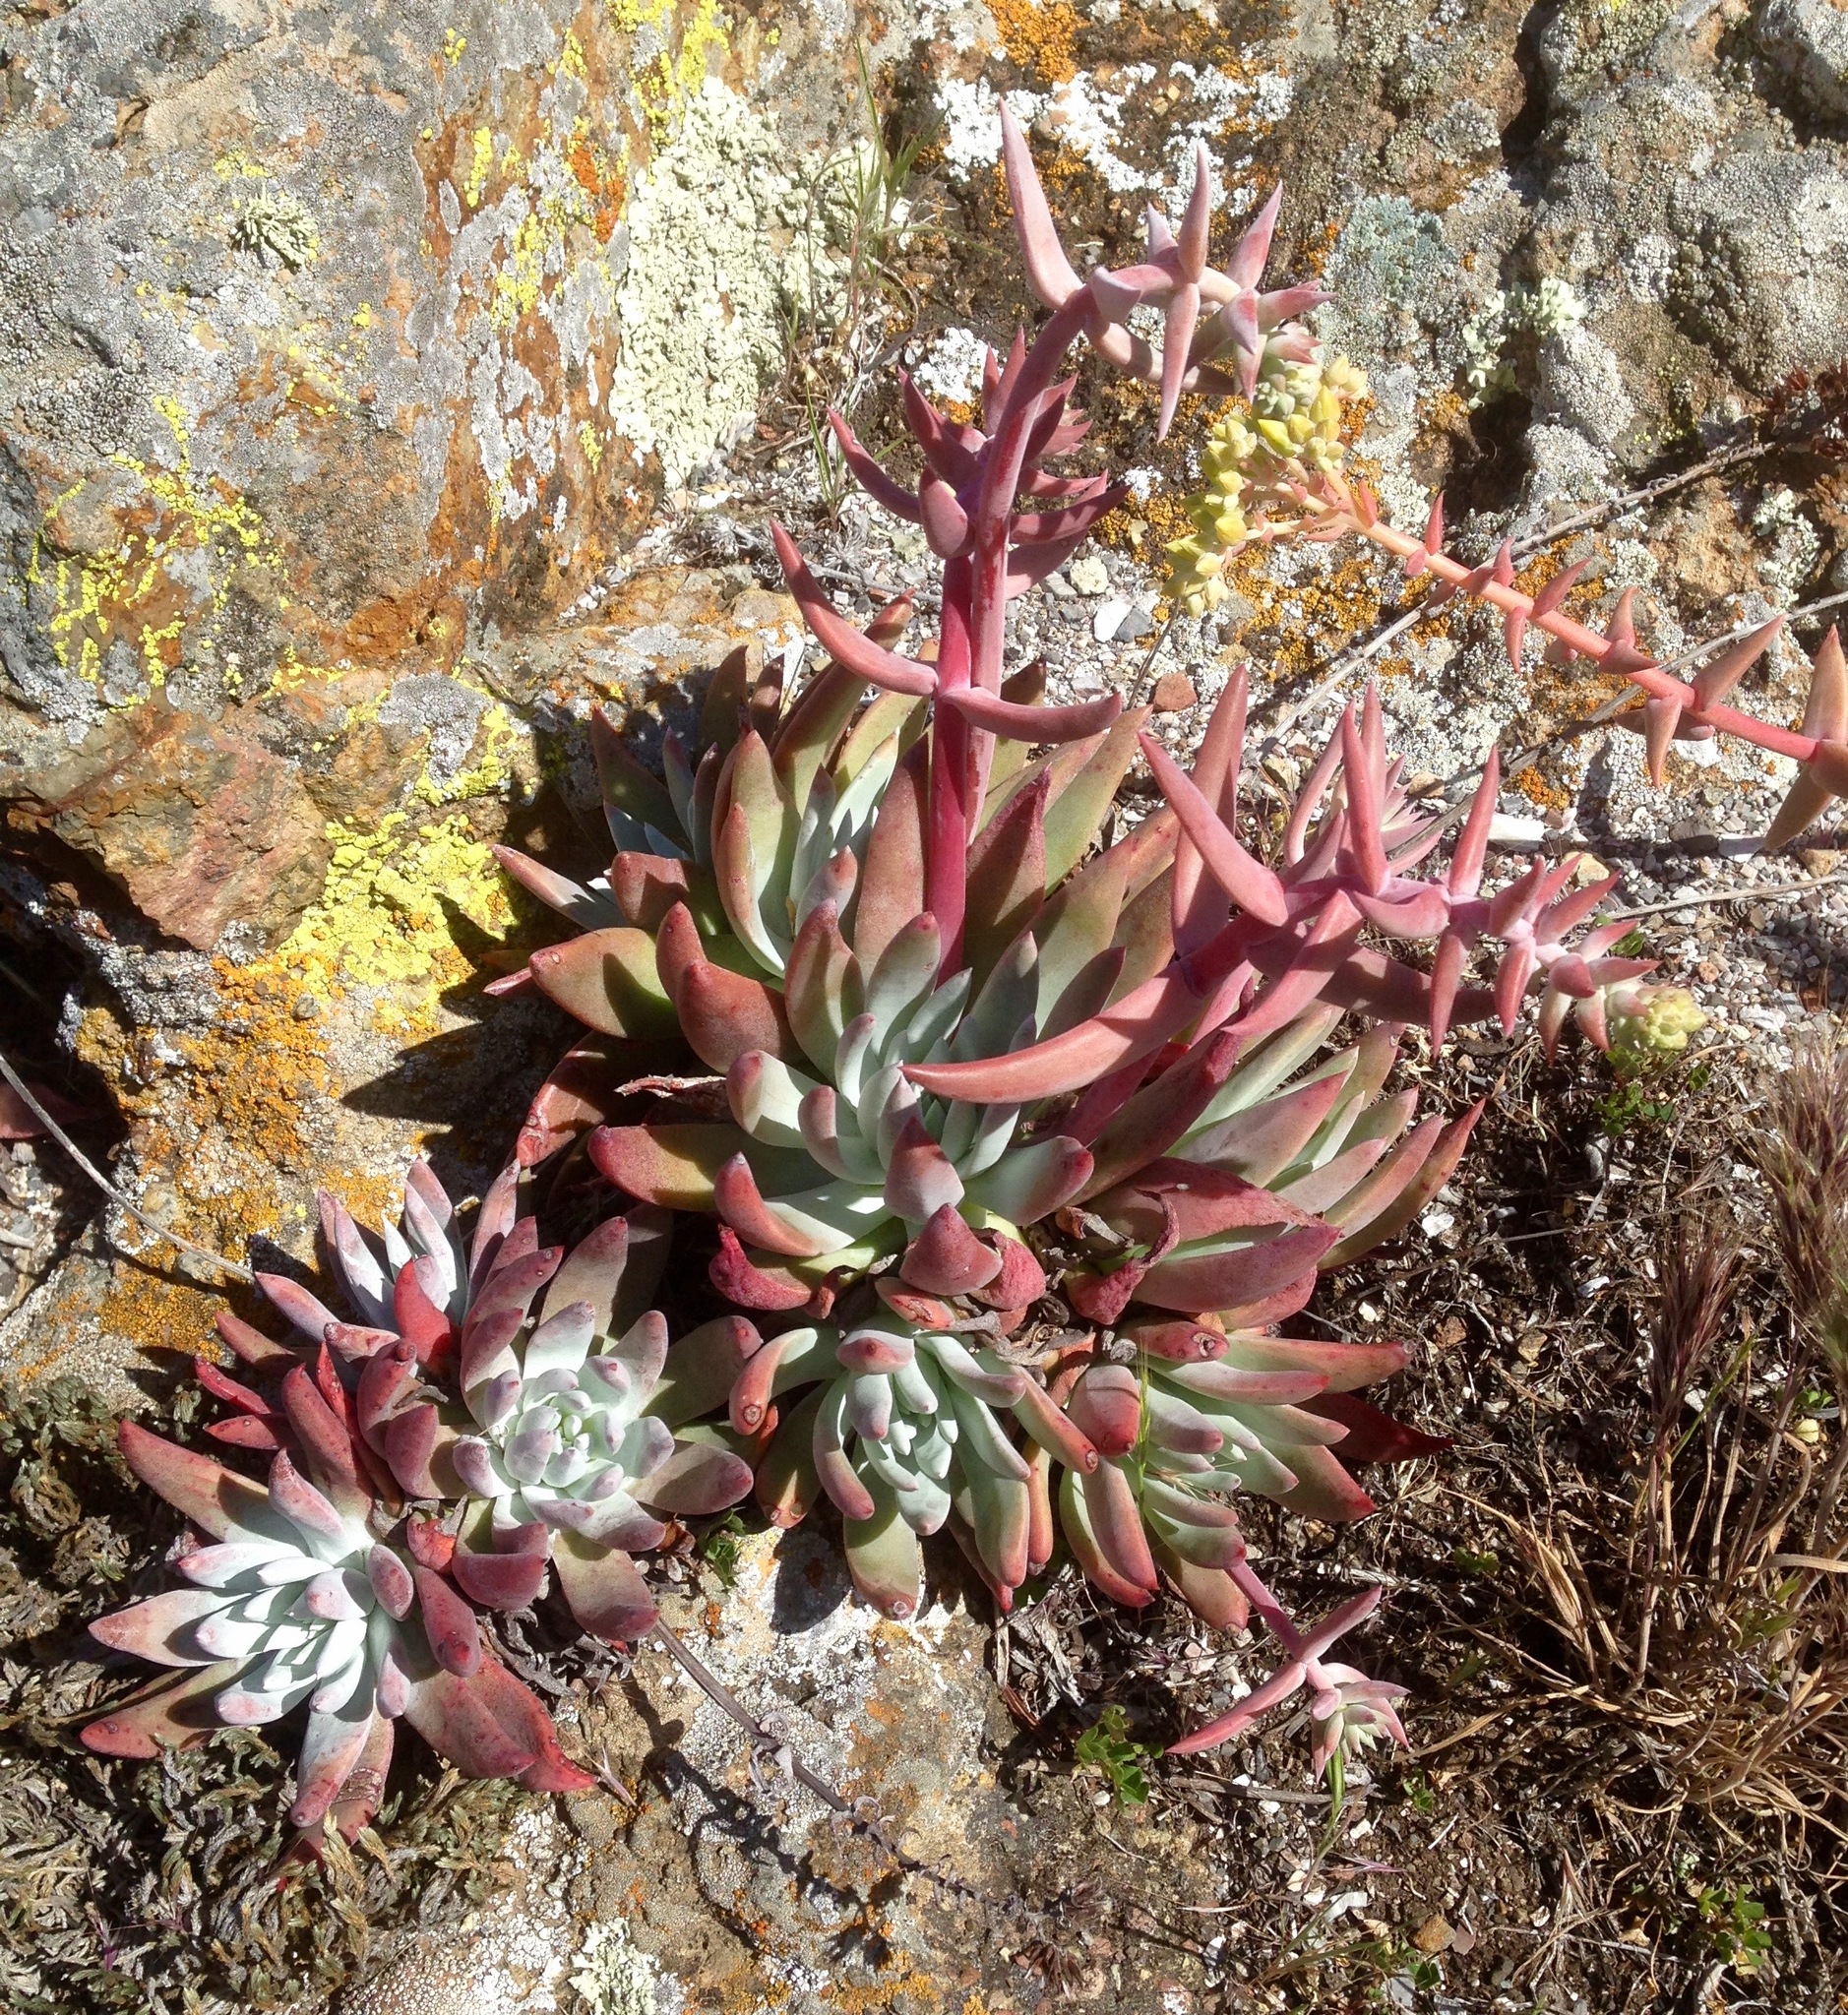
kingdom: Plantae
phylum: Tracheophyta
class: Magnoliopsida
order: Saxifragales
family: Crassulaceae
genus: Dudleya
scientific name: Dudleya greenei
